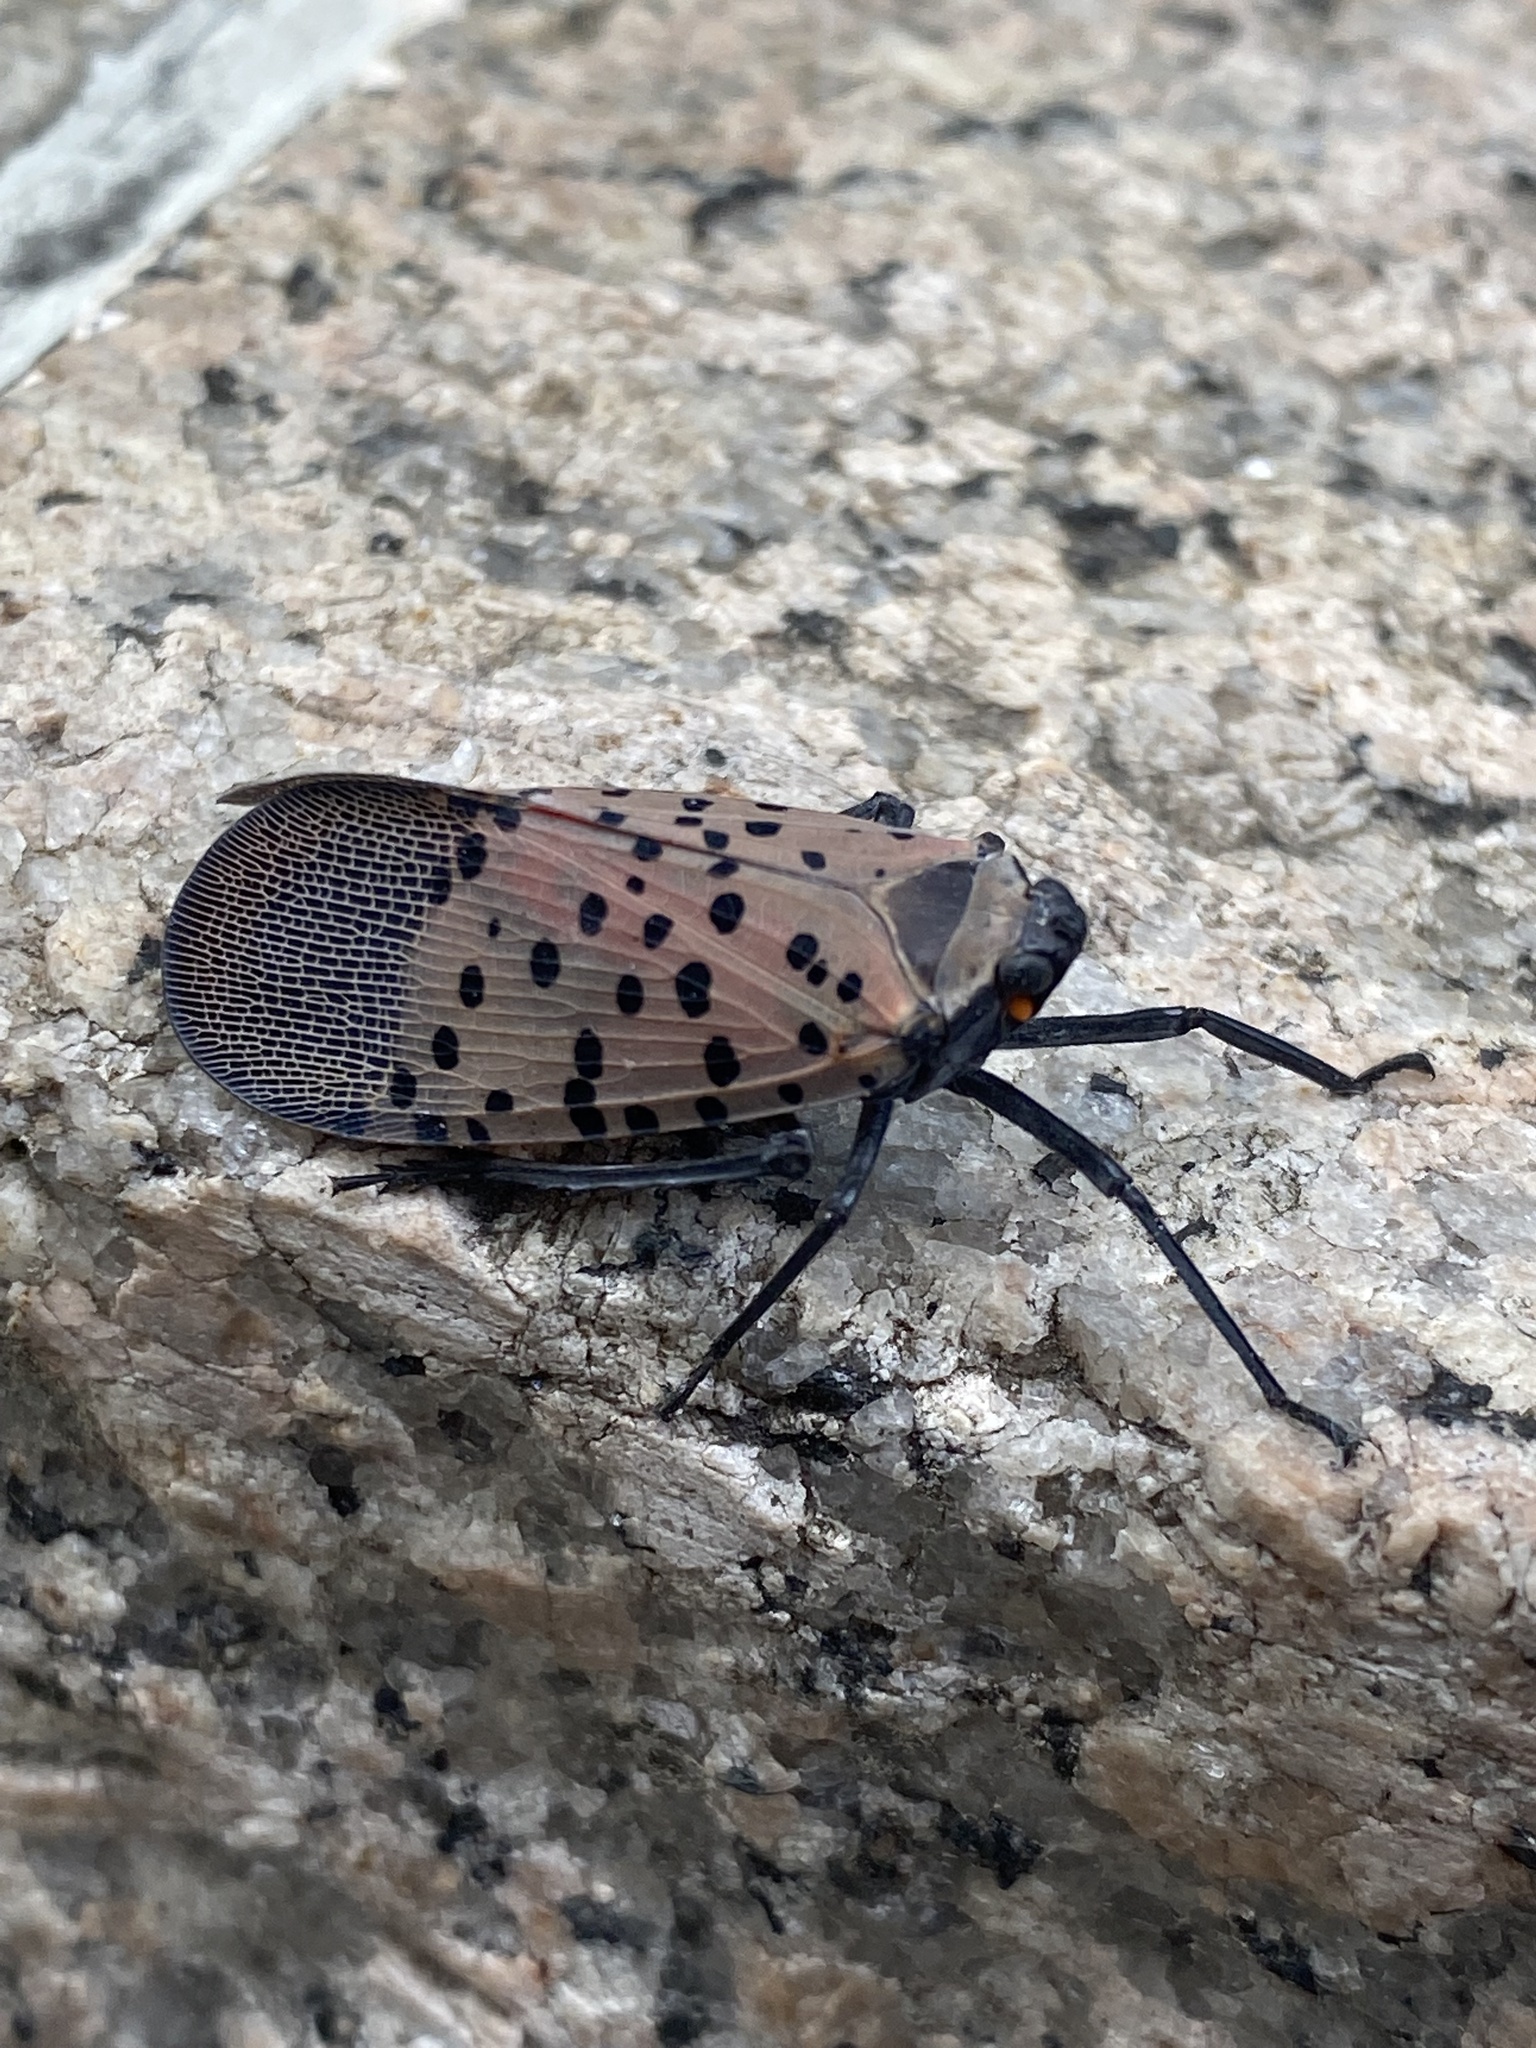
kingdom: Animalia
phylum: Arthropoda
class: Insecta
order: Hemiptera
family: Fulgoridae
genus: Lycorma
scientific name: Lycorma delicatula
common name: Spotted lanternfly
